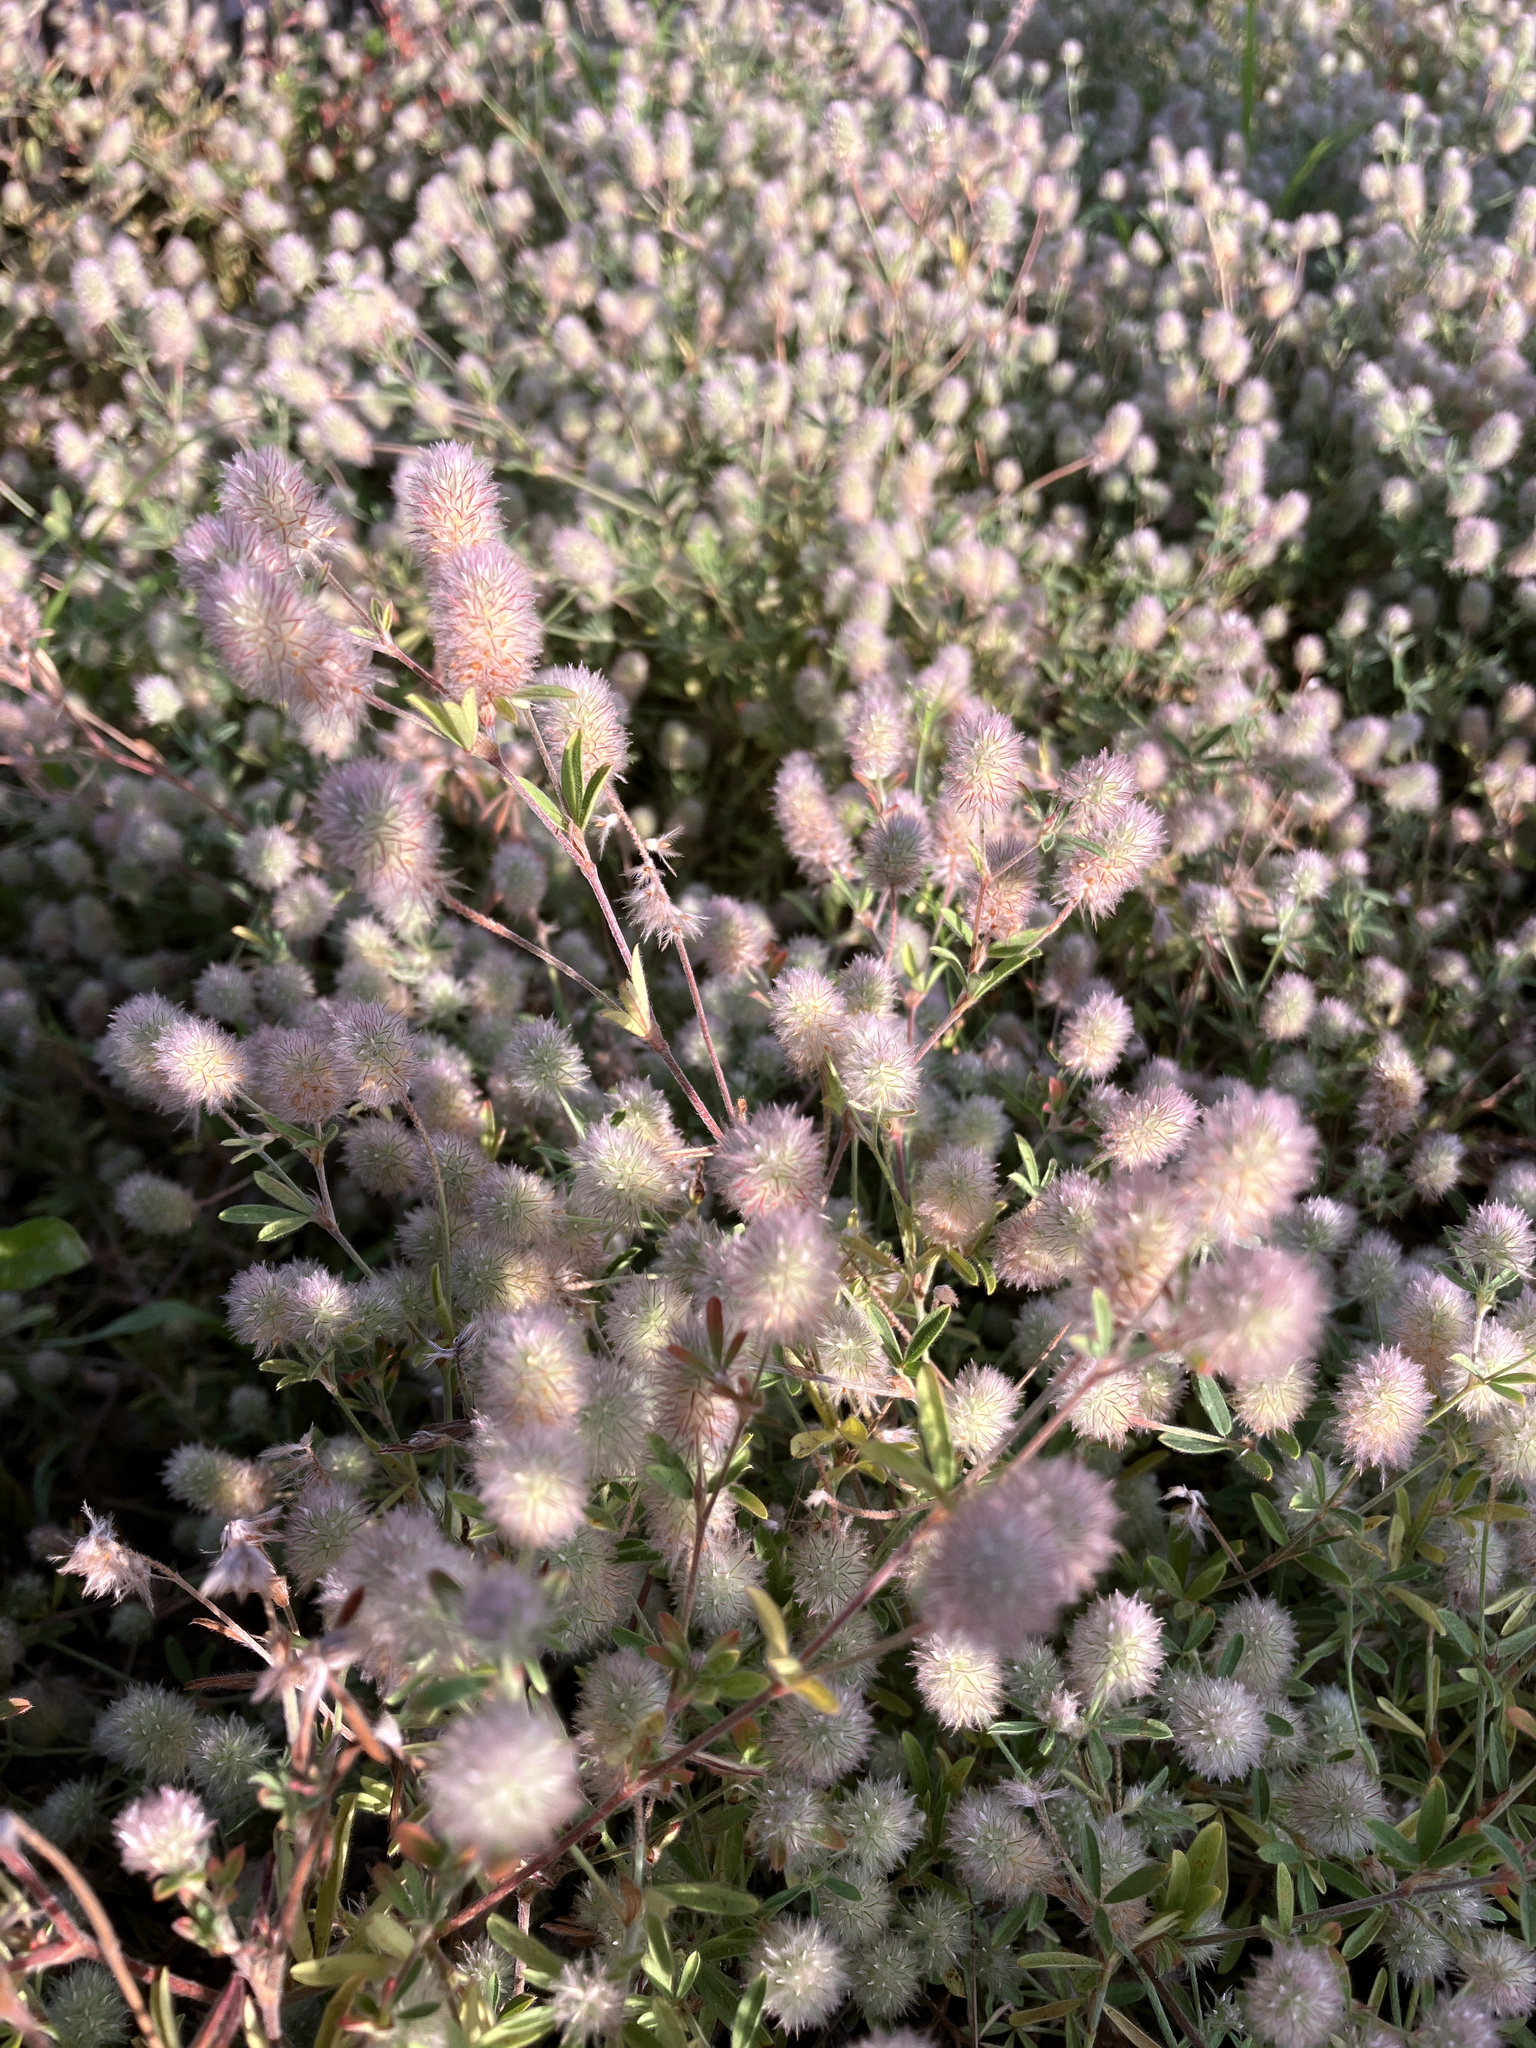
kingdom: Plantae
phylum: Tracheophyta
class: Magnoliopsida
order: Fabales
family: Fabaceae
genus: Trifolium
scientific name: Trifolium arvense
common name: Hare's-foot clover
